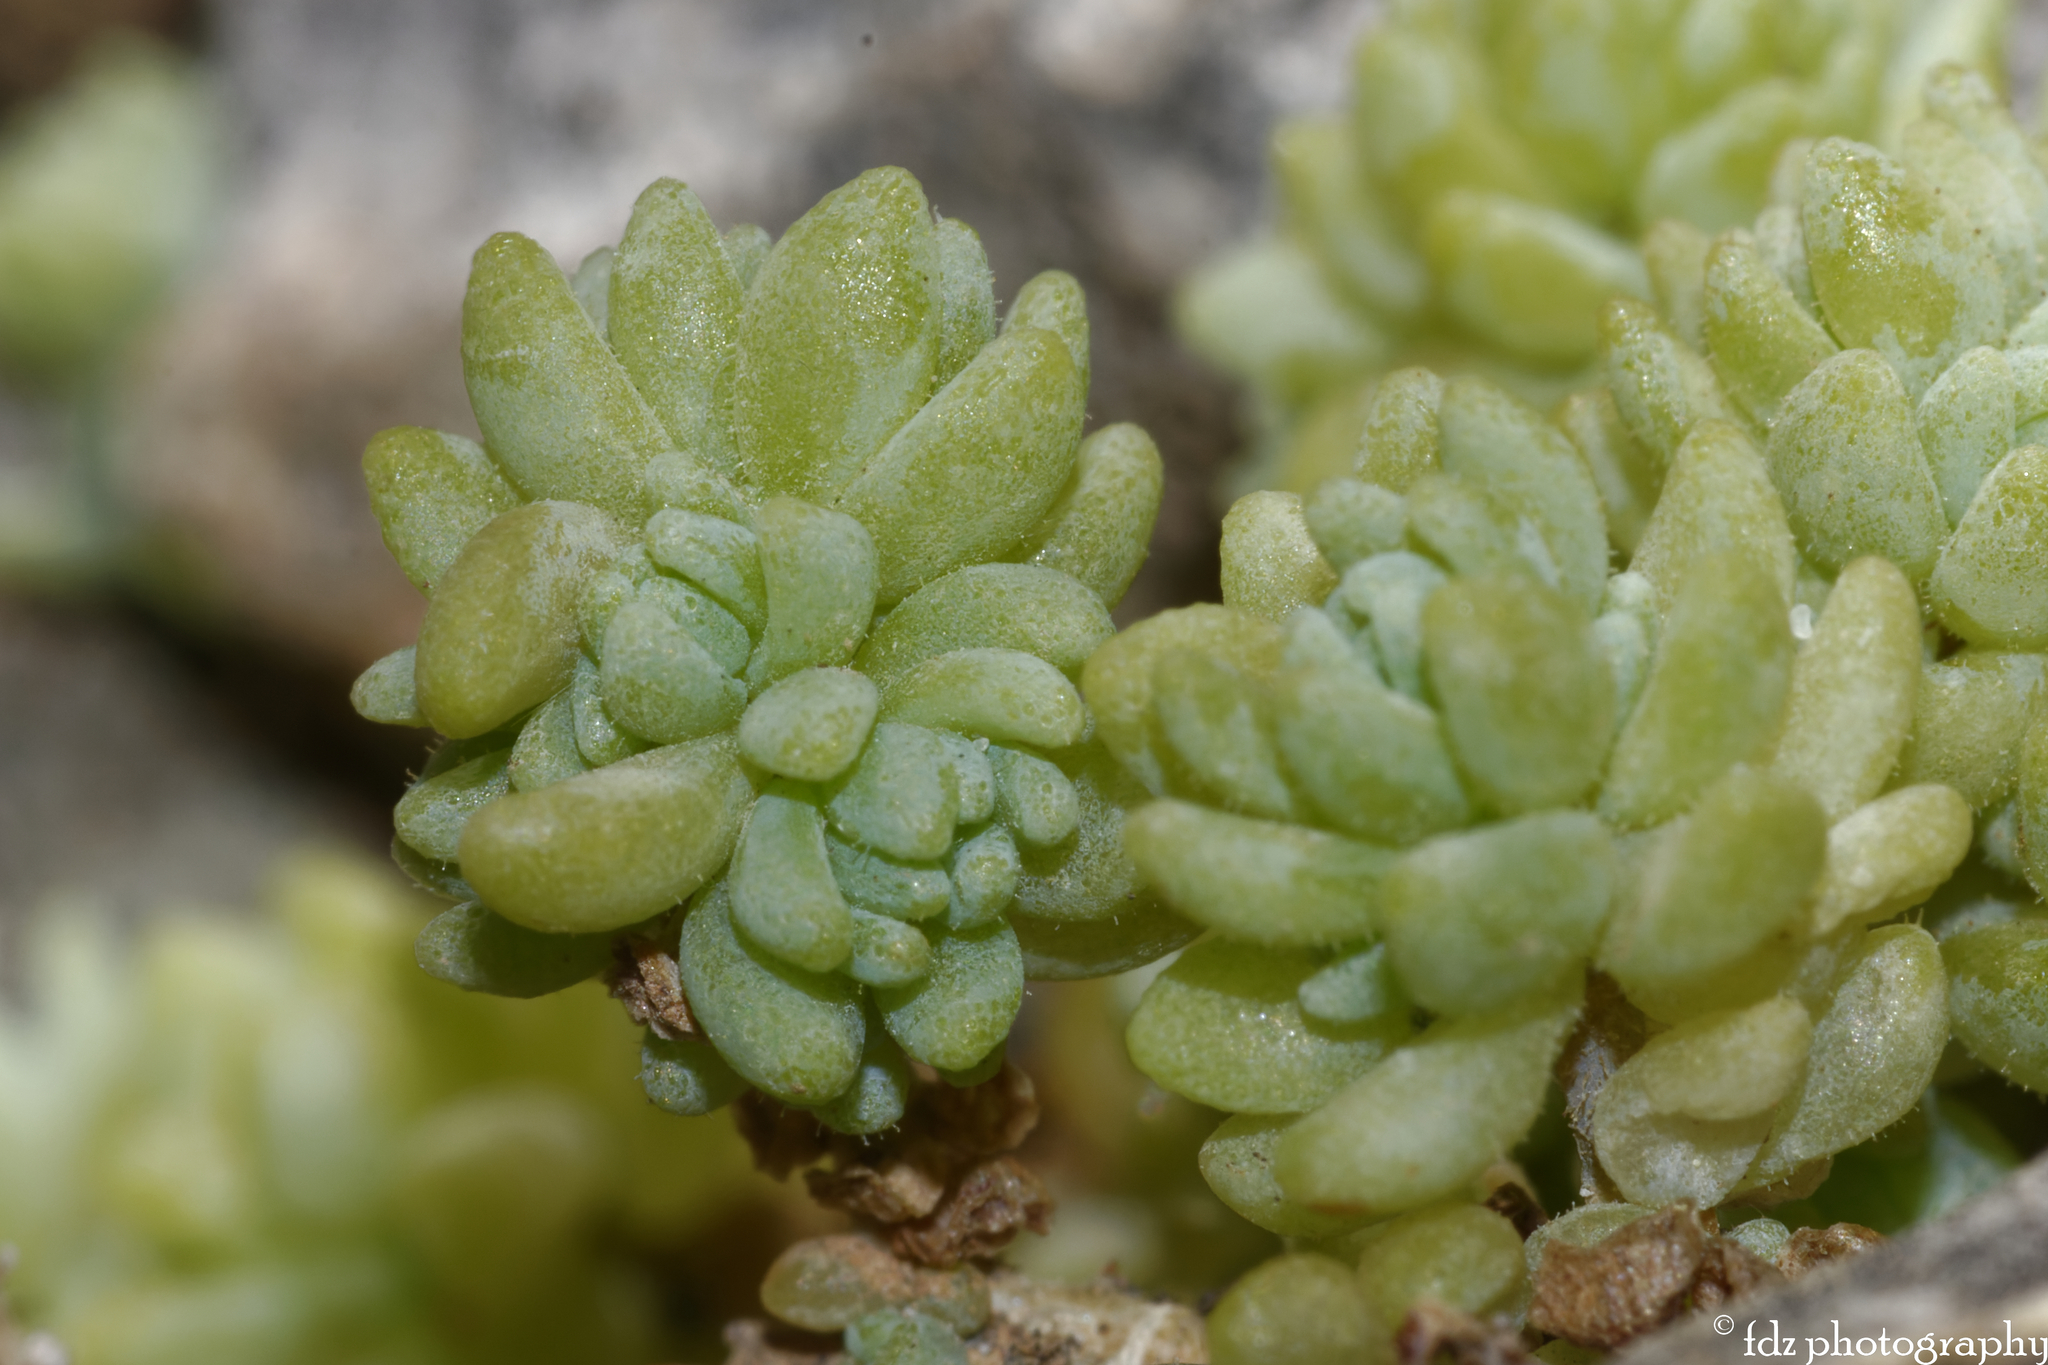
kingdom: Plantae
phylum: Tracheophyta
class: Magnoliopsida
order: Saxifragales
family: Crassulaceae
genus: Sedum
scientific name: Sedum dasyphyllum
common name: Thick-leaf stonecrop
